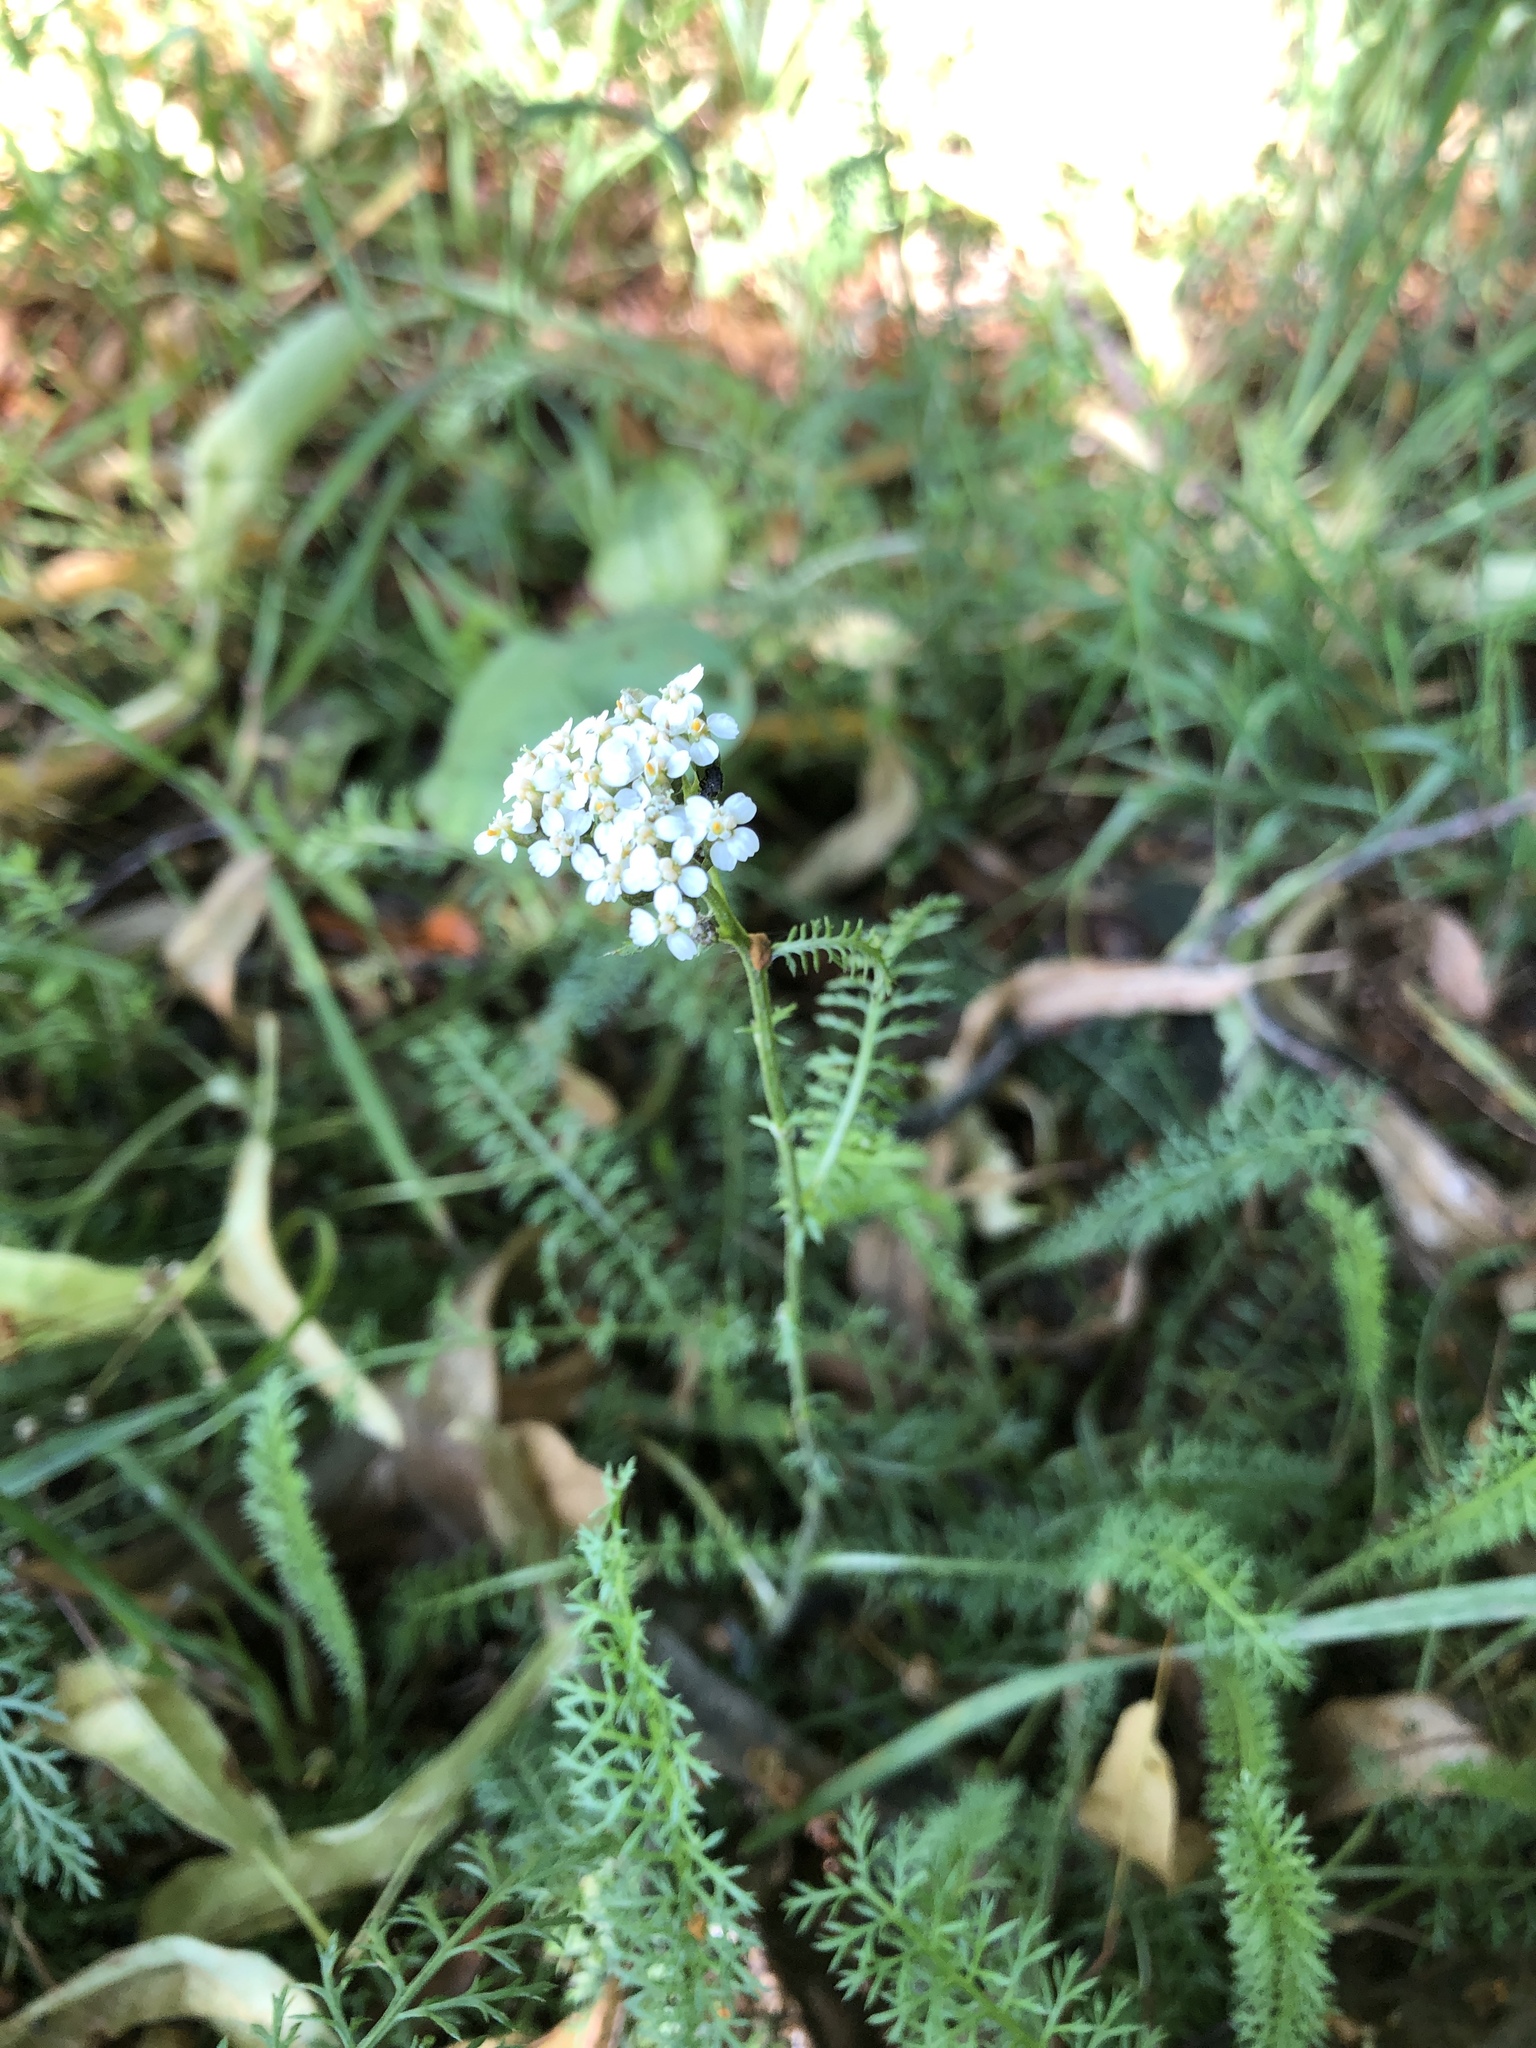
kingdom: Plantae
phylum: Tracheophyta
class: Magnoliopsida
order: Asterales
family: Asteraceae
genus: Achillea
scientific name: Achillea millefolium
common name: Yarrow
